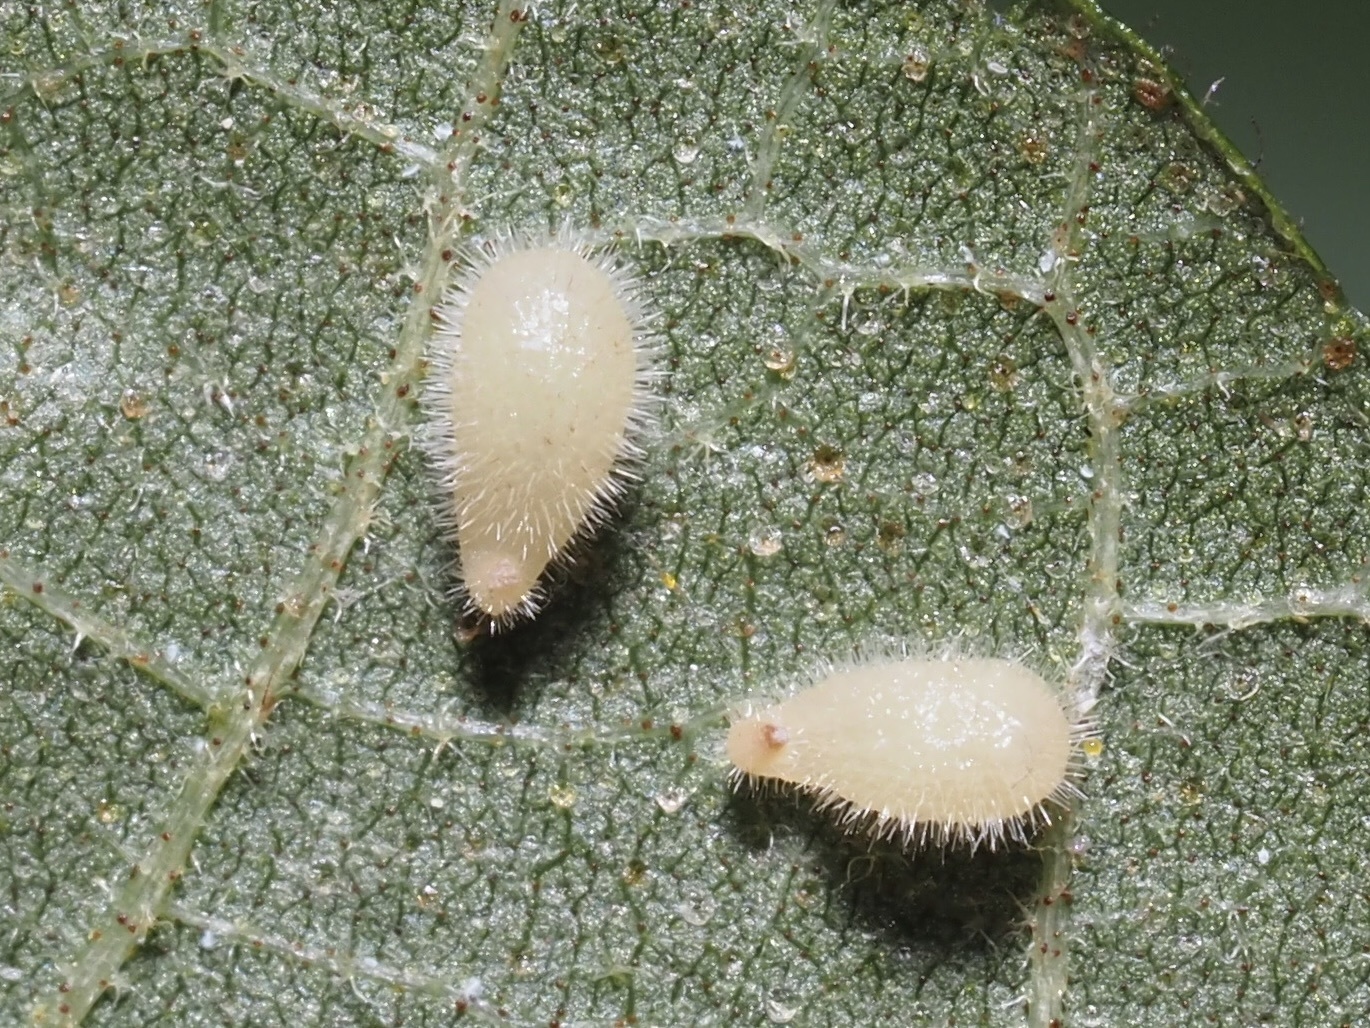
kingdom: Animalia
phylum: Arthropoda
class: Insecta
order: Diptera
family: Cecidomyiidae
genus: Caryomyia
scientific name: Caryomyia eumaris
